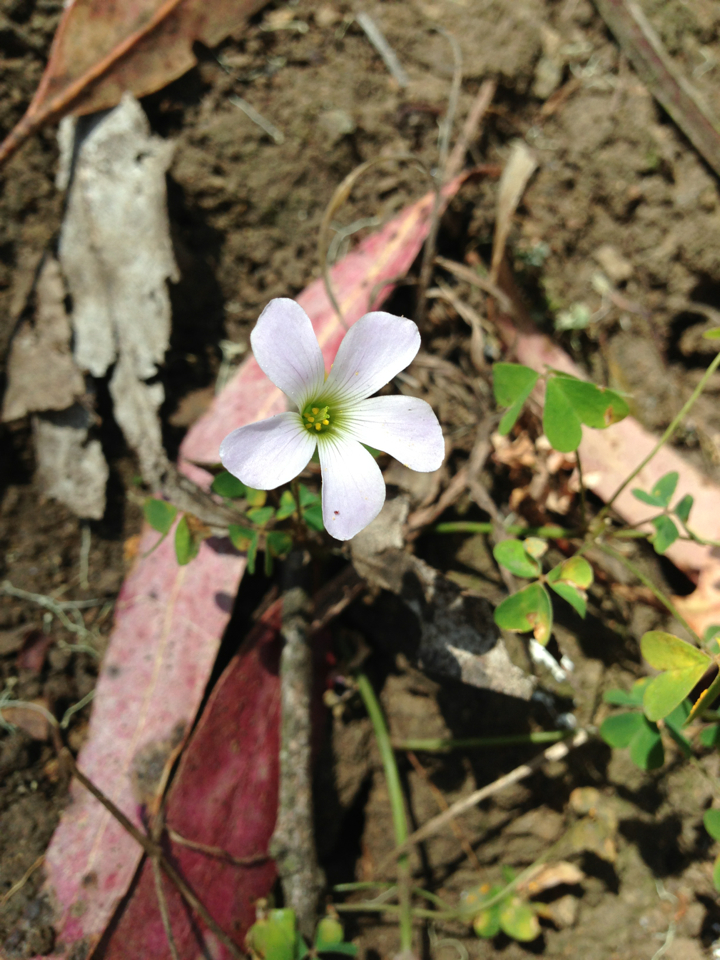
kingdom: Plantae
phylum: Tracheophyta
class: Magnoliopsida
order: Oxalidales
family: Oxalidaceae
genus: Oxalis
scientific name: Oxalis incarnata
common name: Pale pink-sorrel
